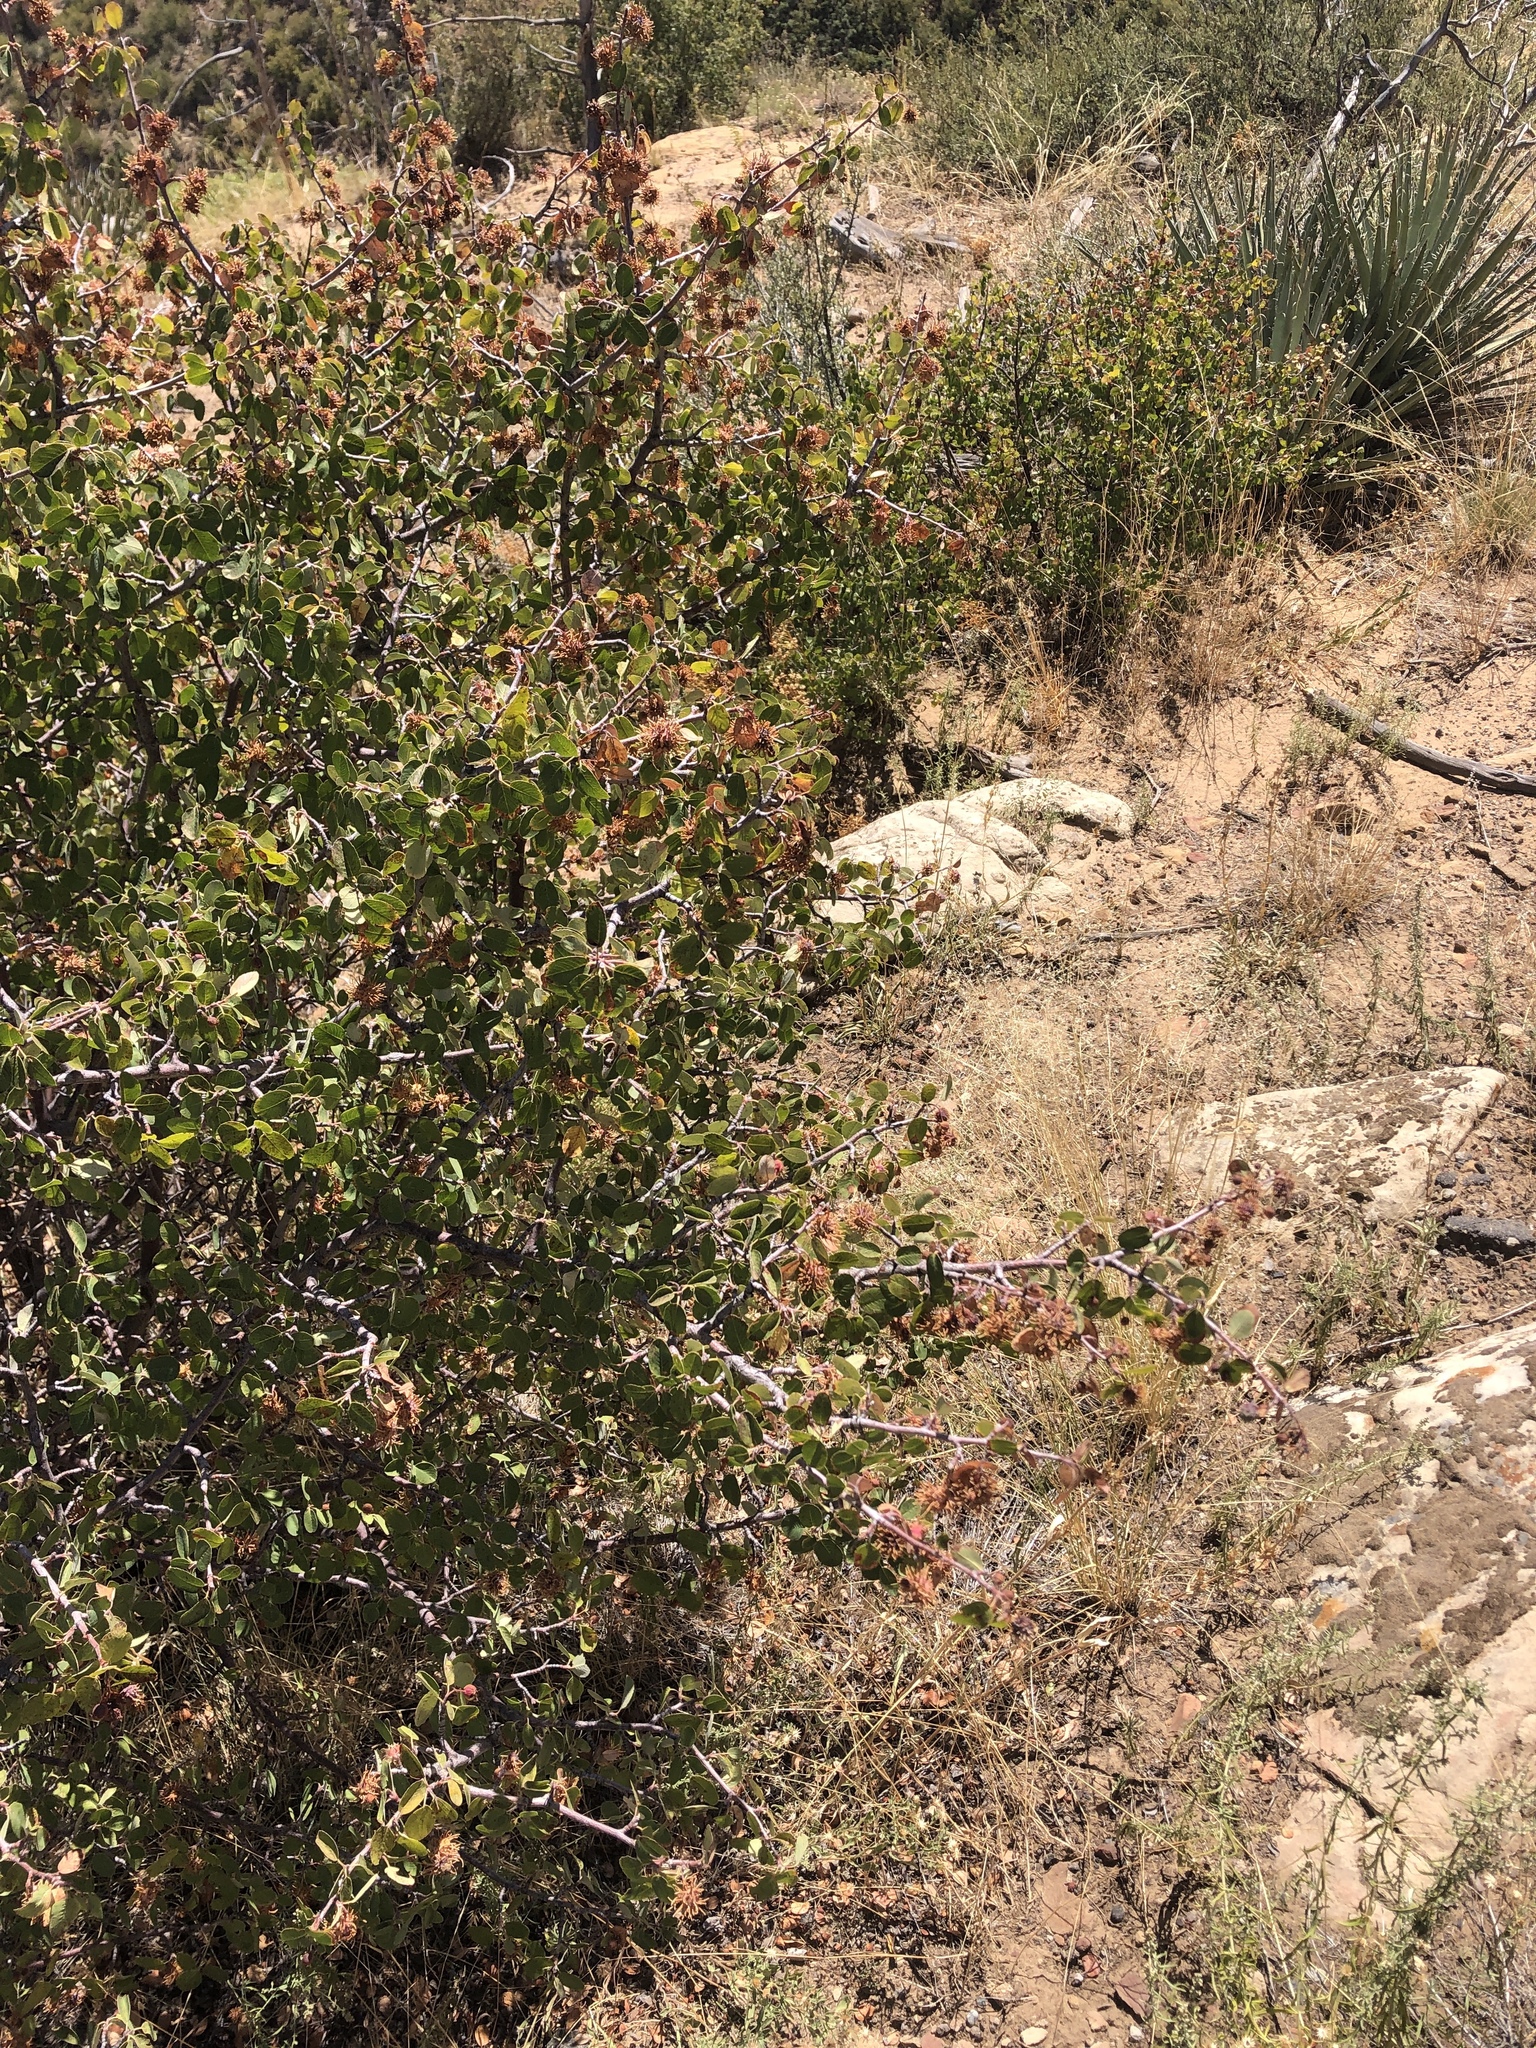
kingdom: Plantae
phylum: Tracheophyta
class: Magnoliopsida
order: Rosales
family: Rosaceae
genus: Amelanchier
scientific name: Amelanchier utahensis
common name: Utah serviceberry
